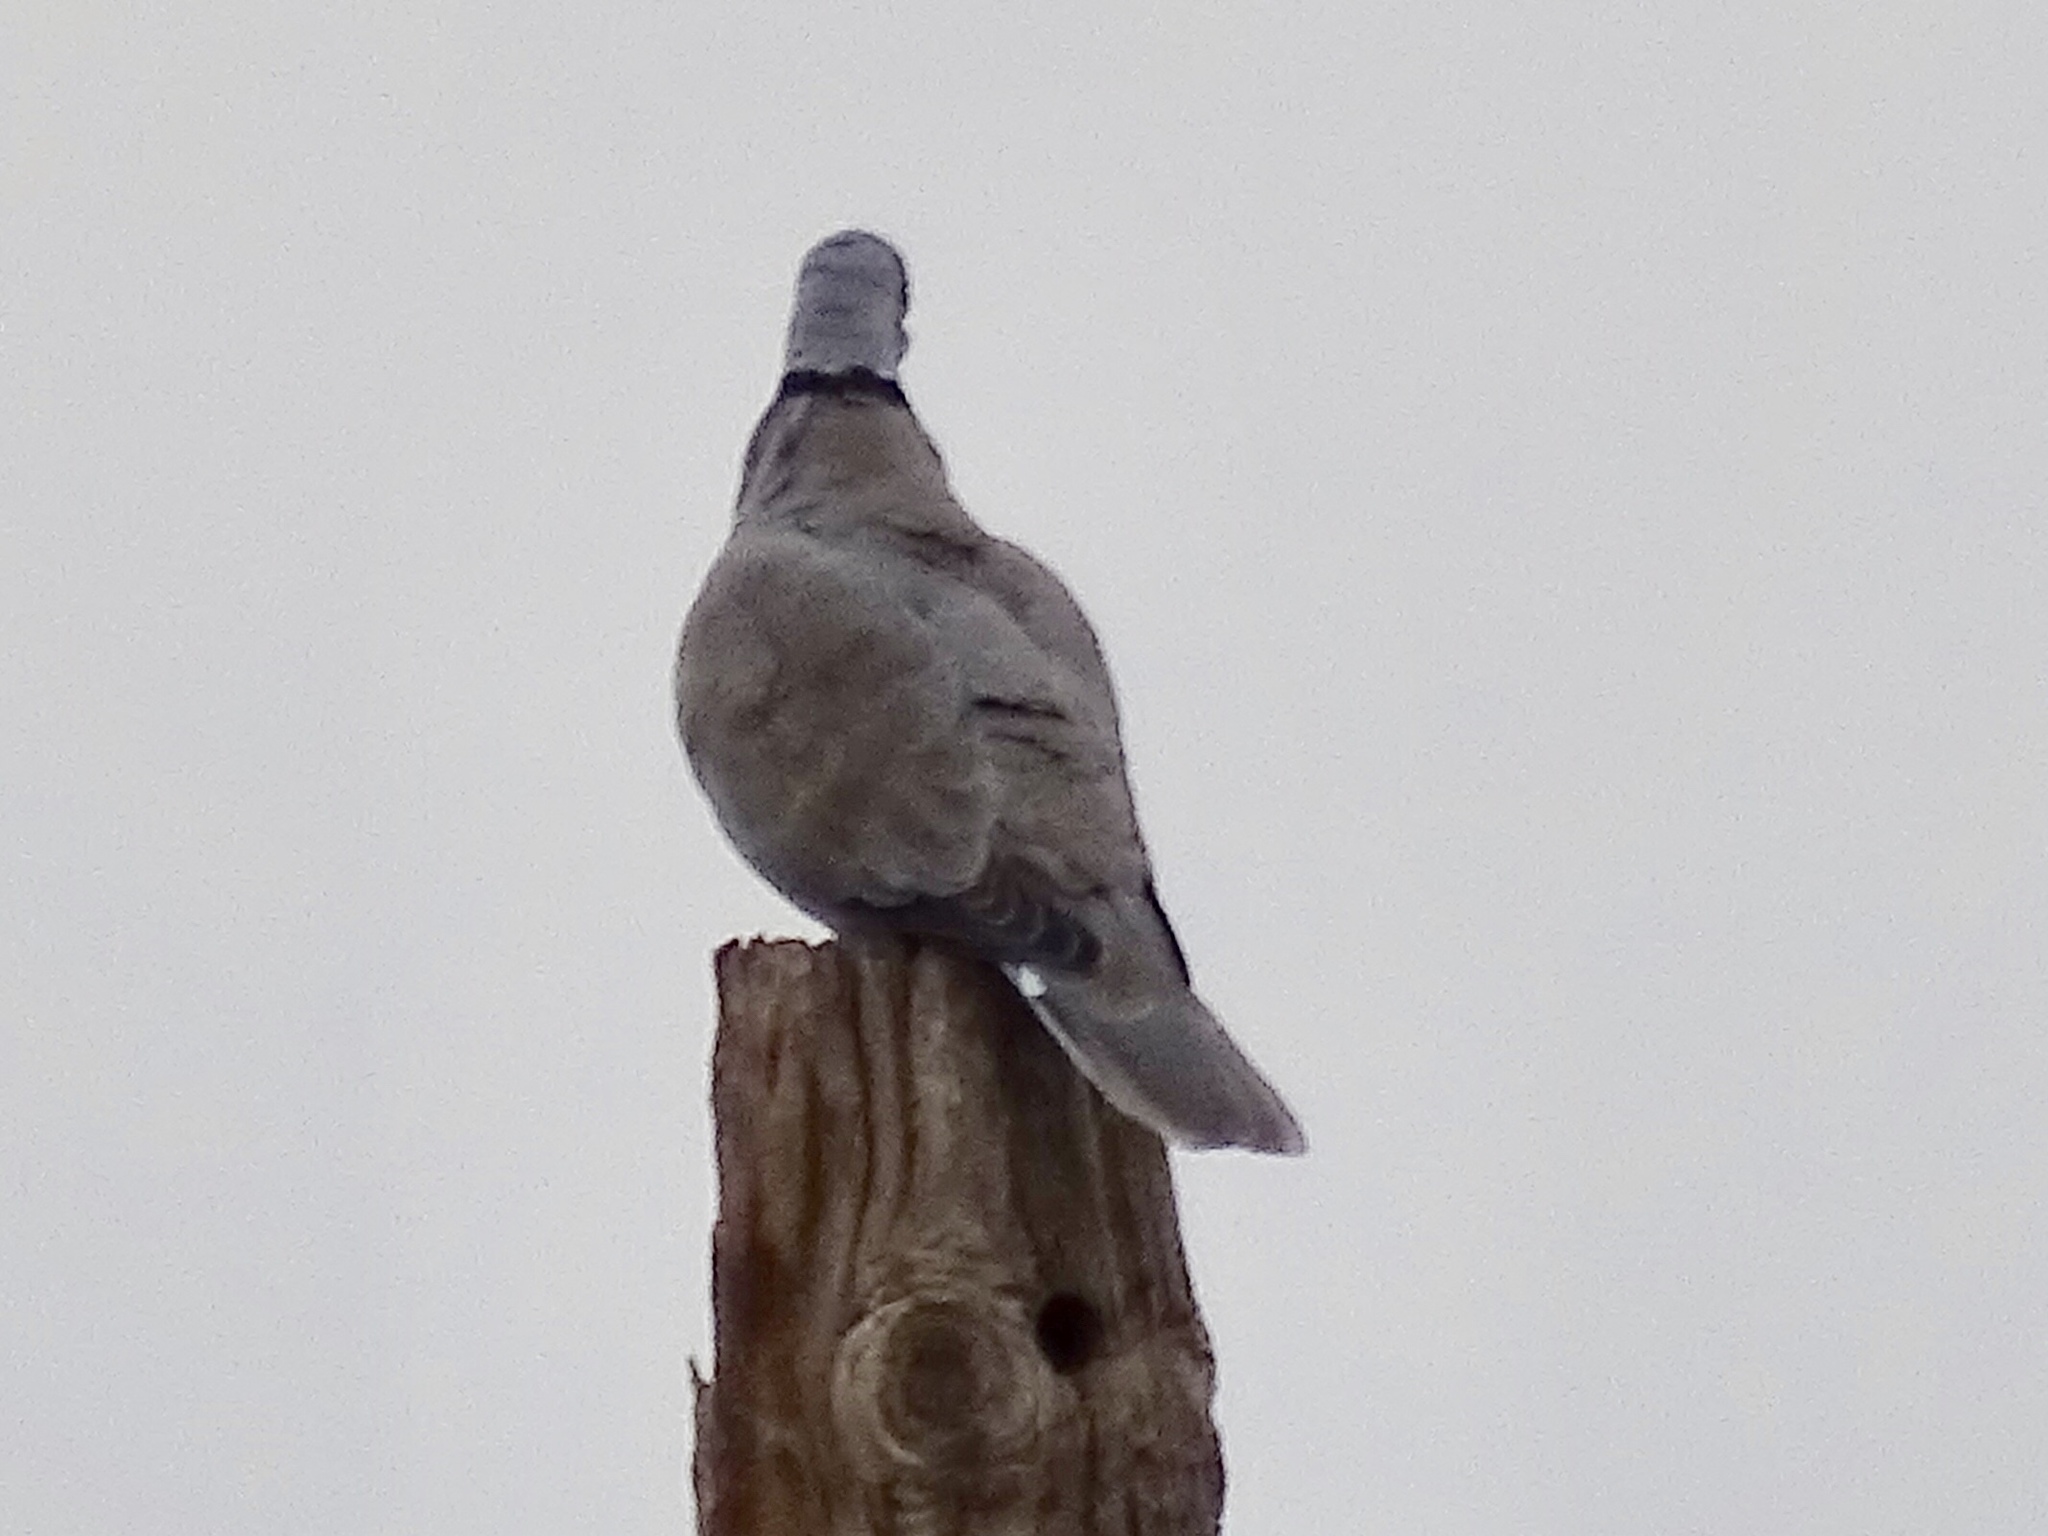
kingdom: Animalia
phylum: Chordata
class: Aves
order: Columbiformes
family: Columbidae
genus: Streptopelia
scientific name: Streptopelia decaocto
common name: Eurasian collared dove
